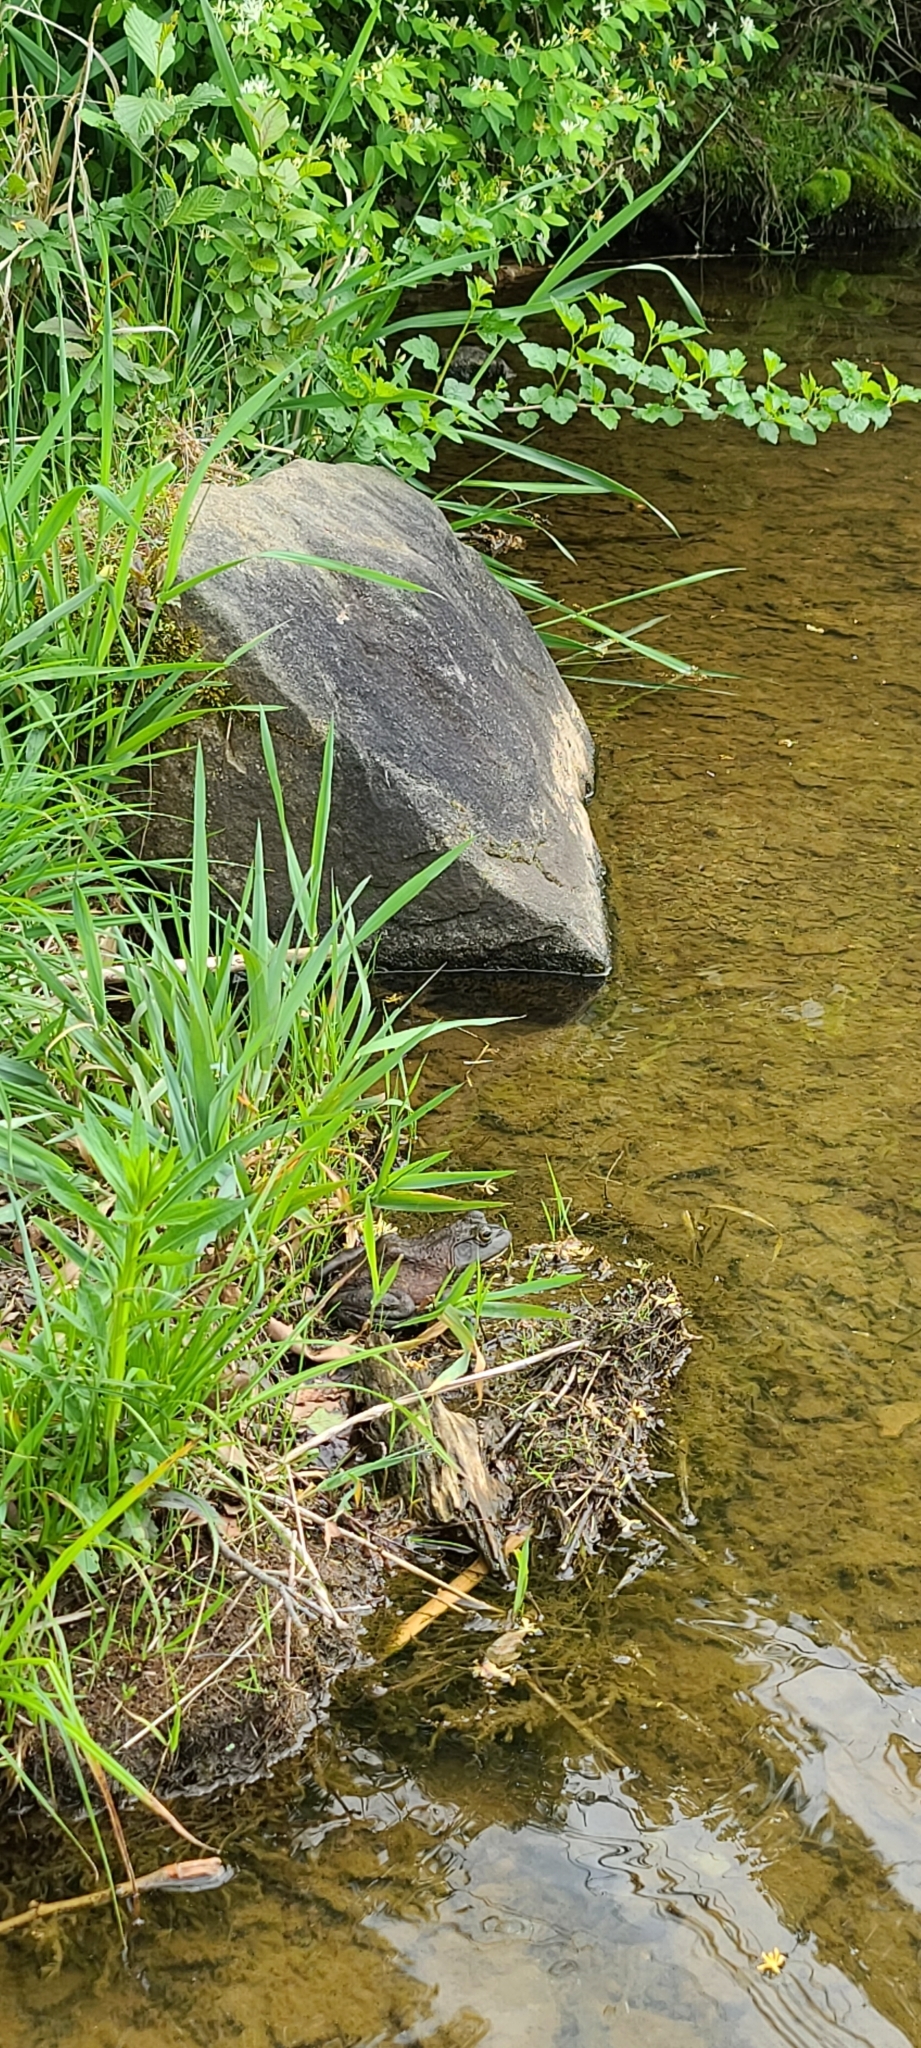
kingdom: Animalia
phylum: Chordata
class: Amphibia
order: Anura
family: Ranidae
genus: Lithobates
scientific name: Lithobates catesbeianus
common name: American bullfrog
